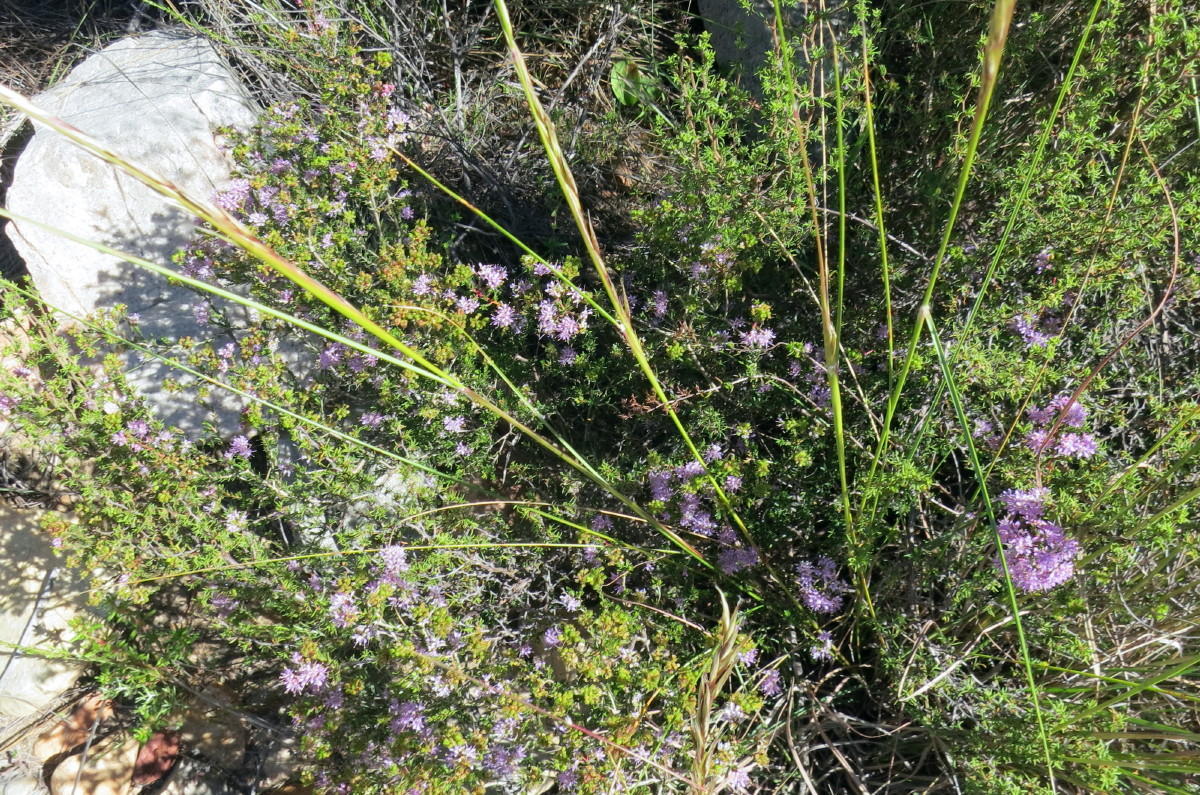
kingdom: Plantae
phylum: Tracheophyta
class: Magnoliopsida
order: Sapindales
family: Rutaceae
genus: Agathosma
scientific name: Agathosma
